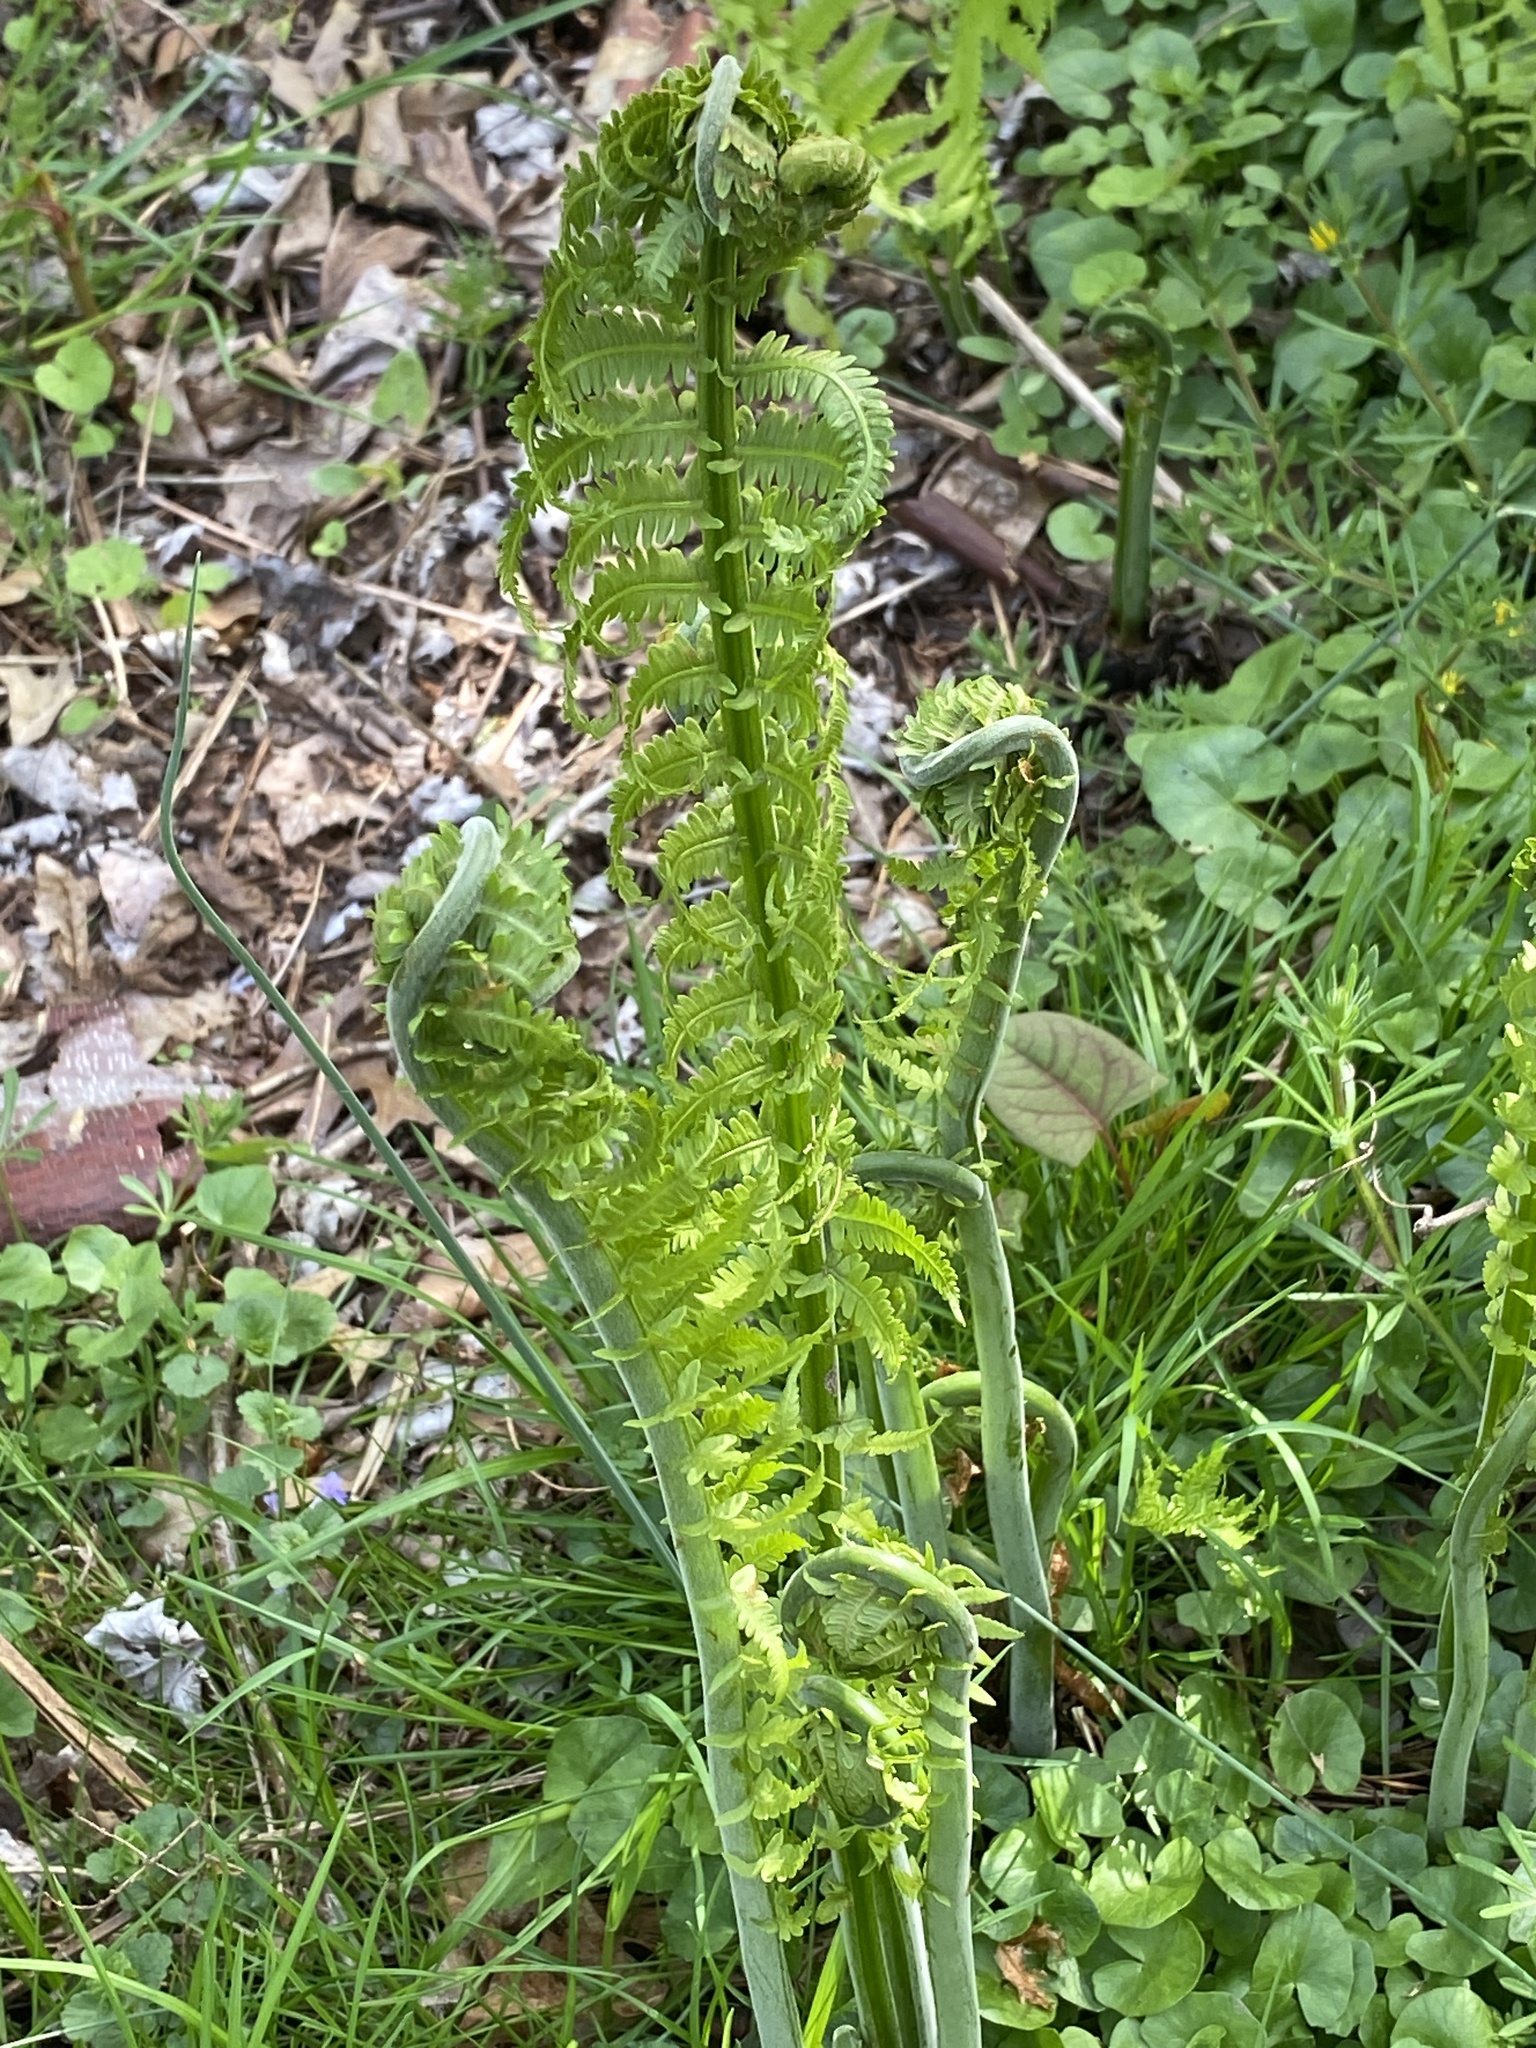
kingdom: Plantae
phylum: Tracheophyta
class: Polypodiopsida
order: Polypodiales
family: Onocleaceae
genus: Matteuccia
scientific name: Matteuccia struthiopteris
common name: Ostrich fern
